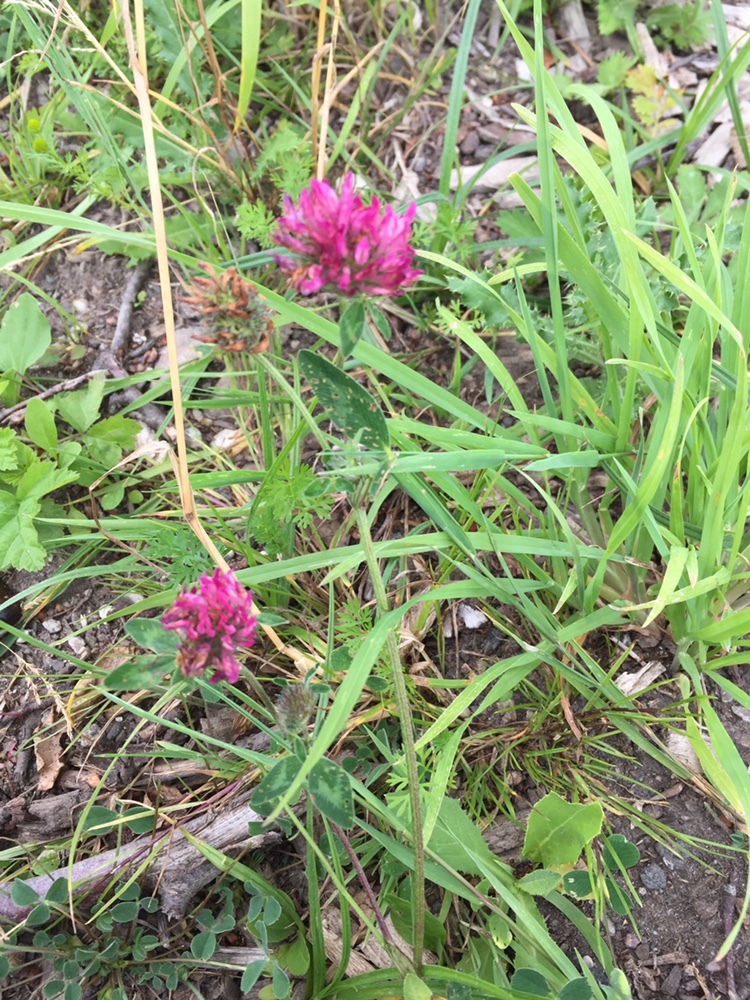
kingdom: Plantae
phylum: Tracheophyta
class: Magnoliopsida
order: Fabales
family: Fabaceae
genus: Trifolium
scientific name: Trifolium pratense
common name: Red clover
